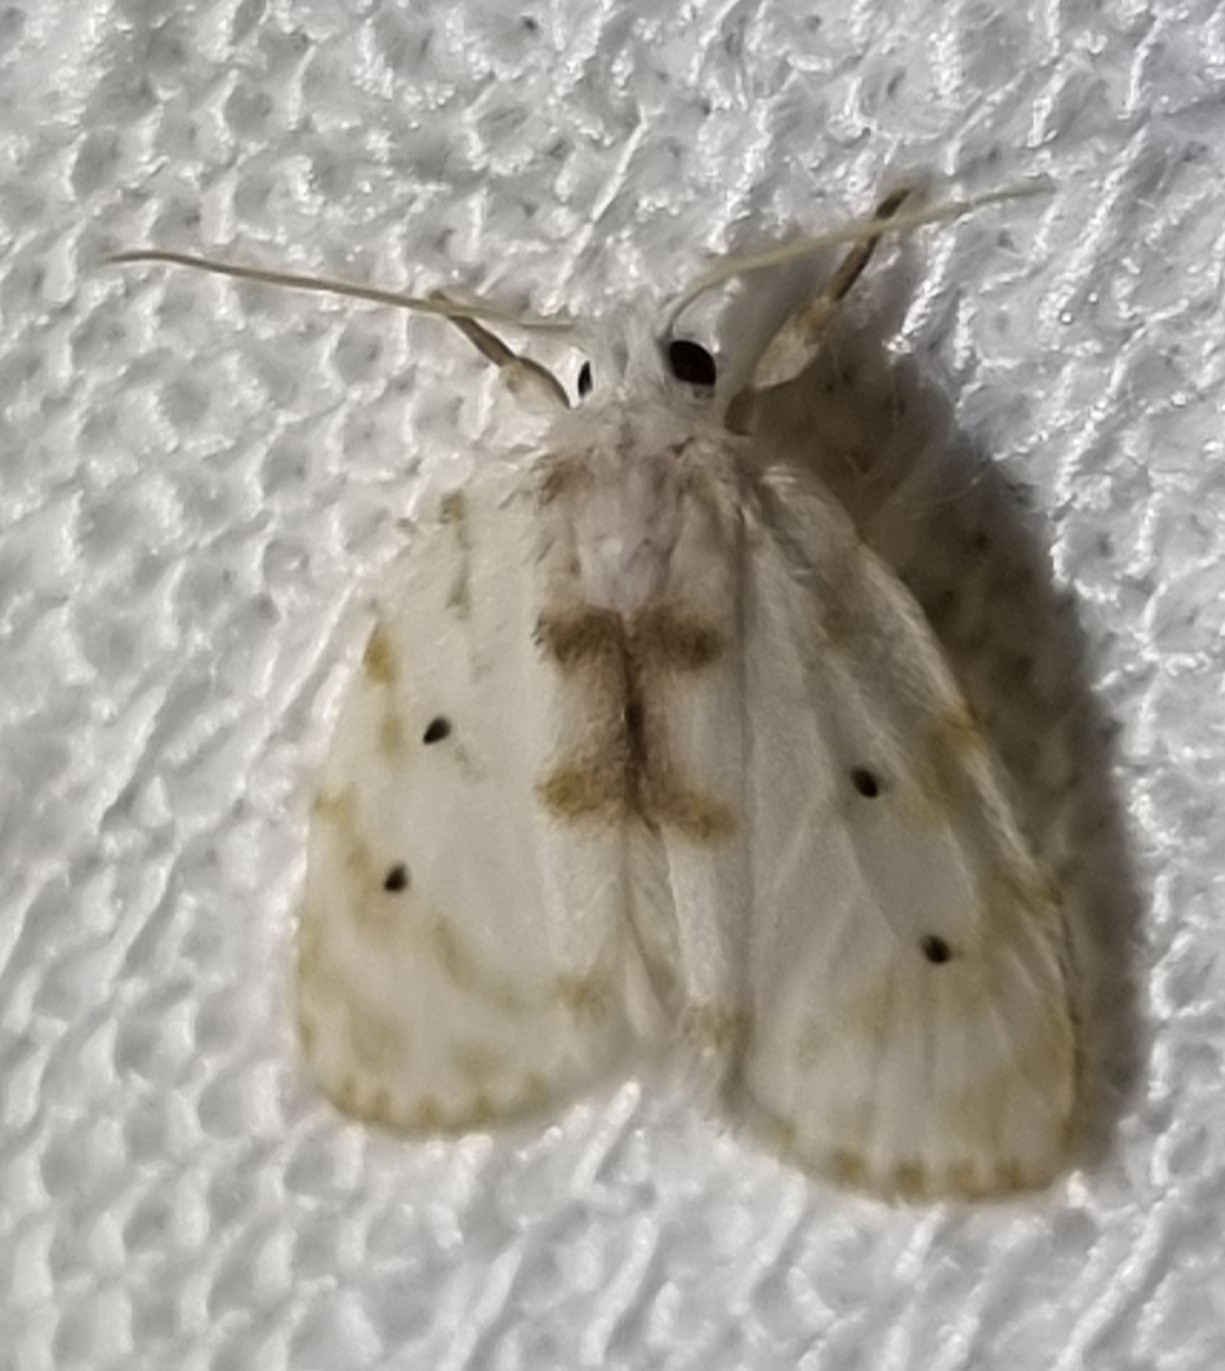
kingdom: Animalia
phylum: Arthropoda
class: Insecta
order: Lepidoptera
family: Erebidae
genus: Schistophleps
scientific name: Schistophleps albida
